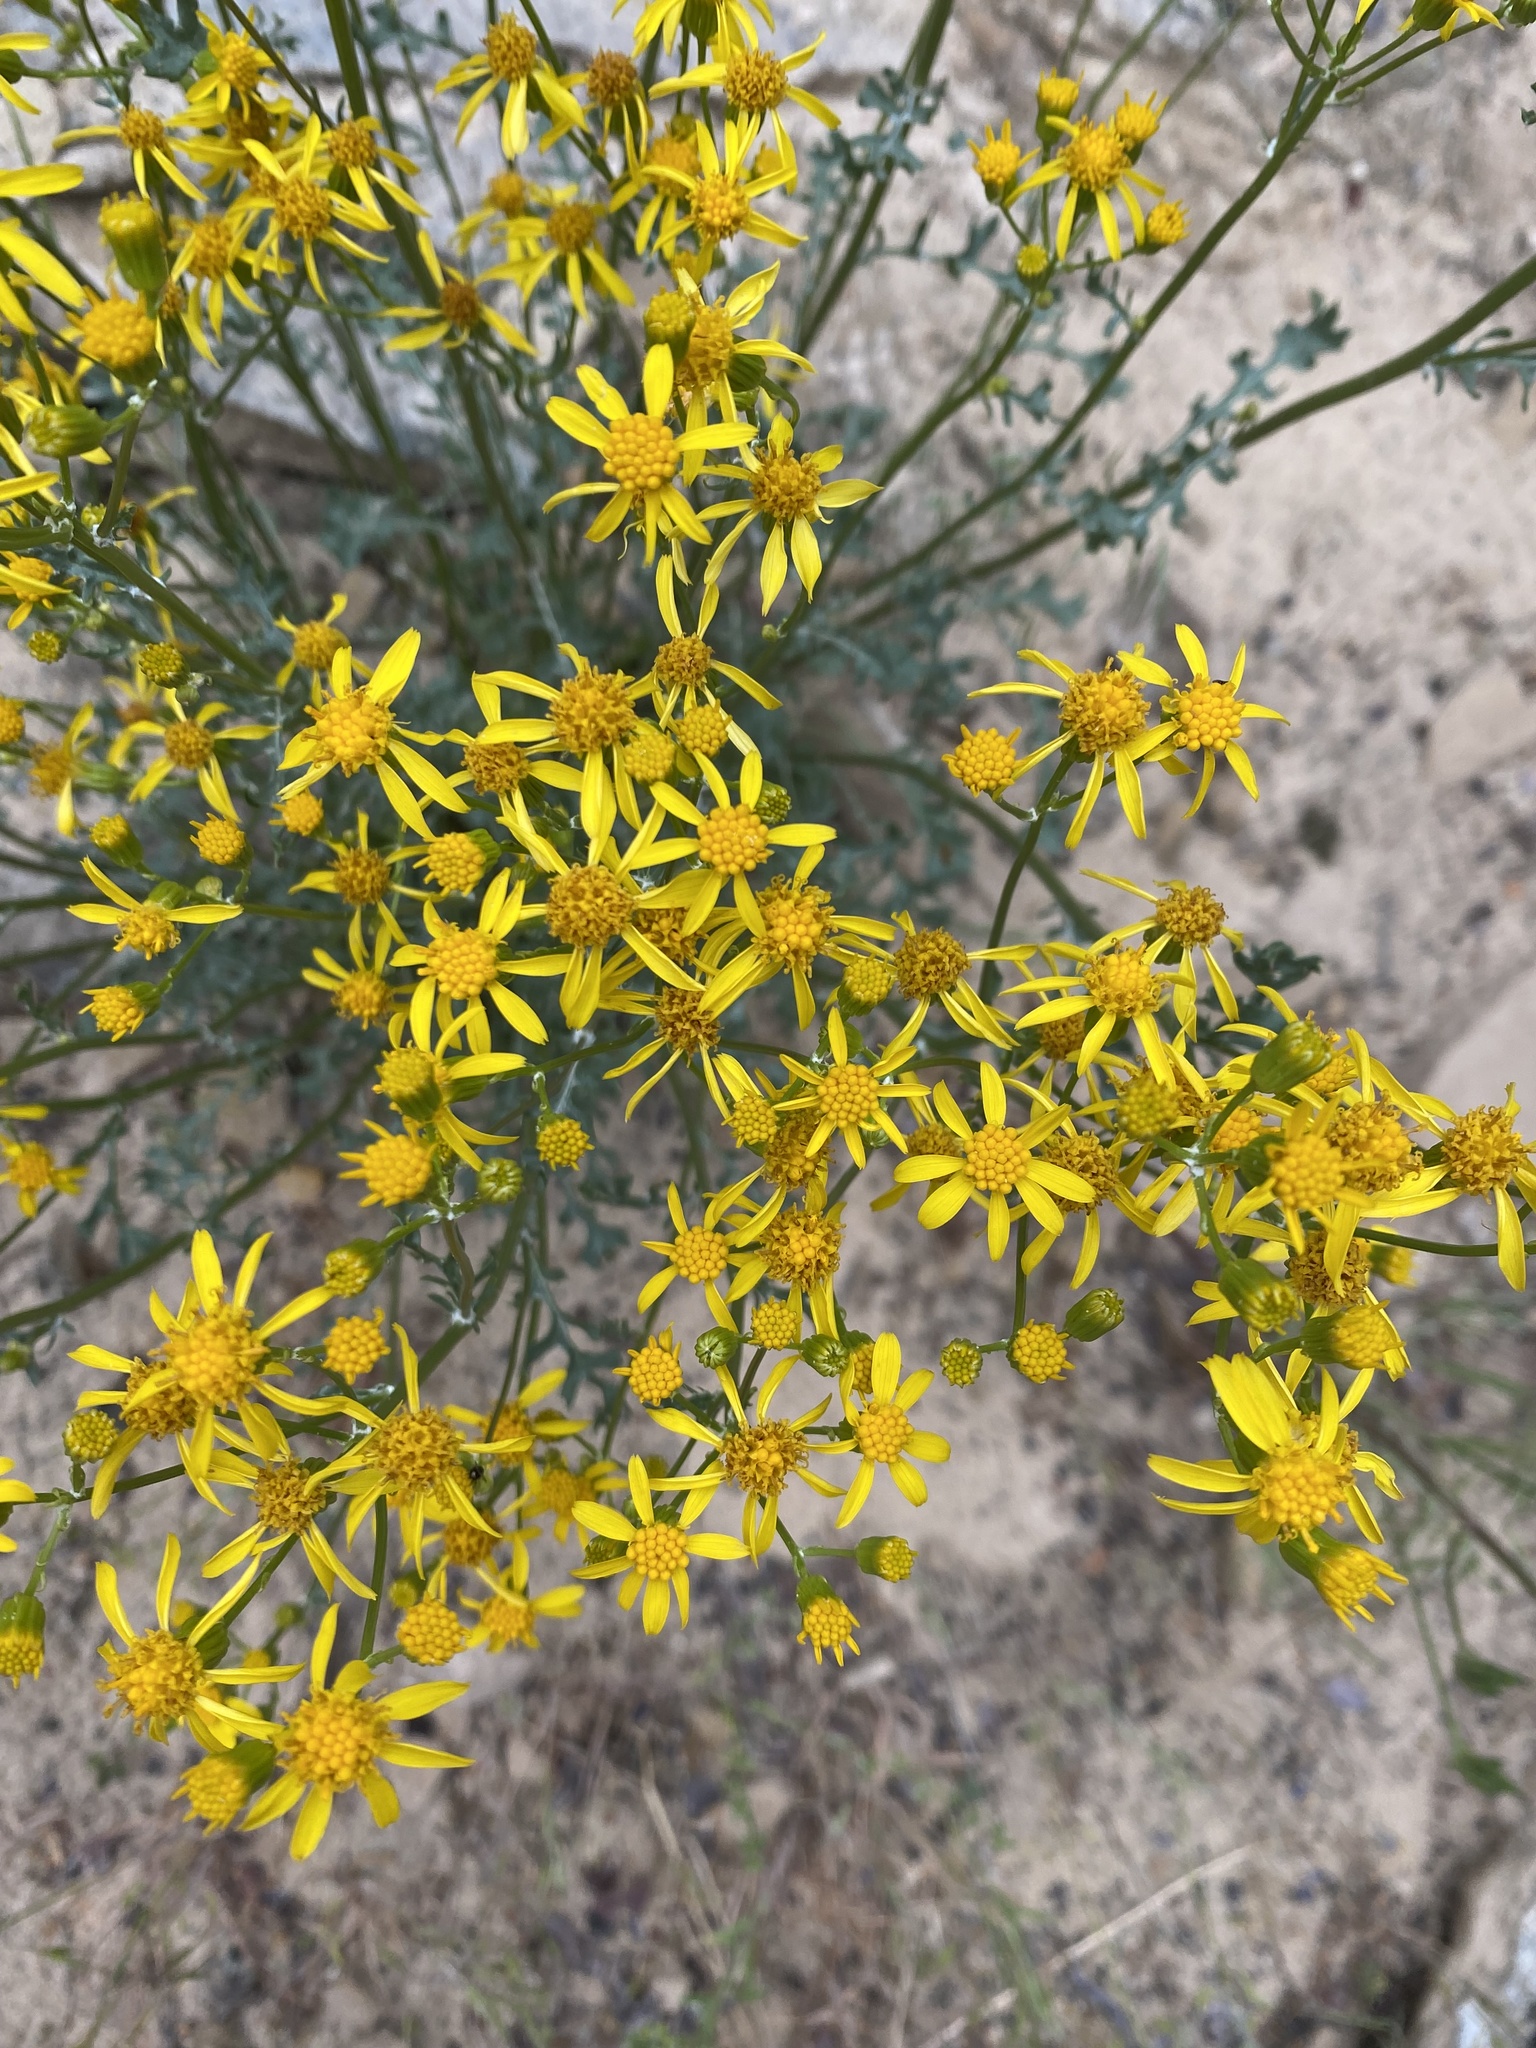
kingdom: Plantae
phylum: Tracheophyta
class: Magnoliopsida
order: Asterales
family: Asteraceae
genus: Packera
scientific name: Packera multilobata
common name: Lobe-leaf groundsel
